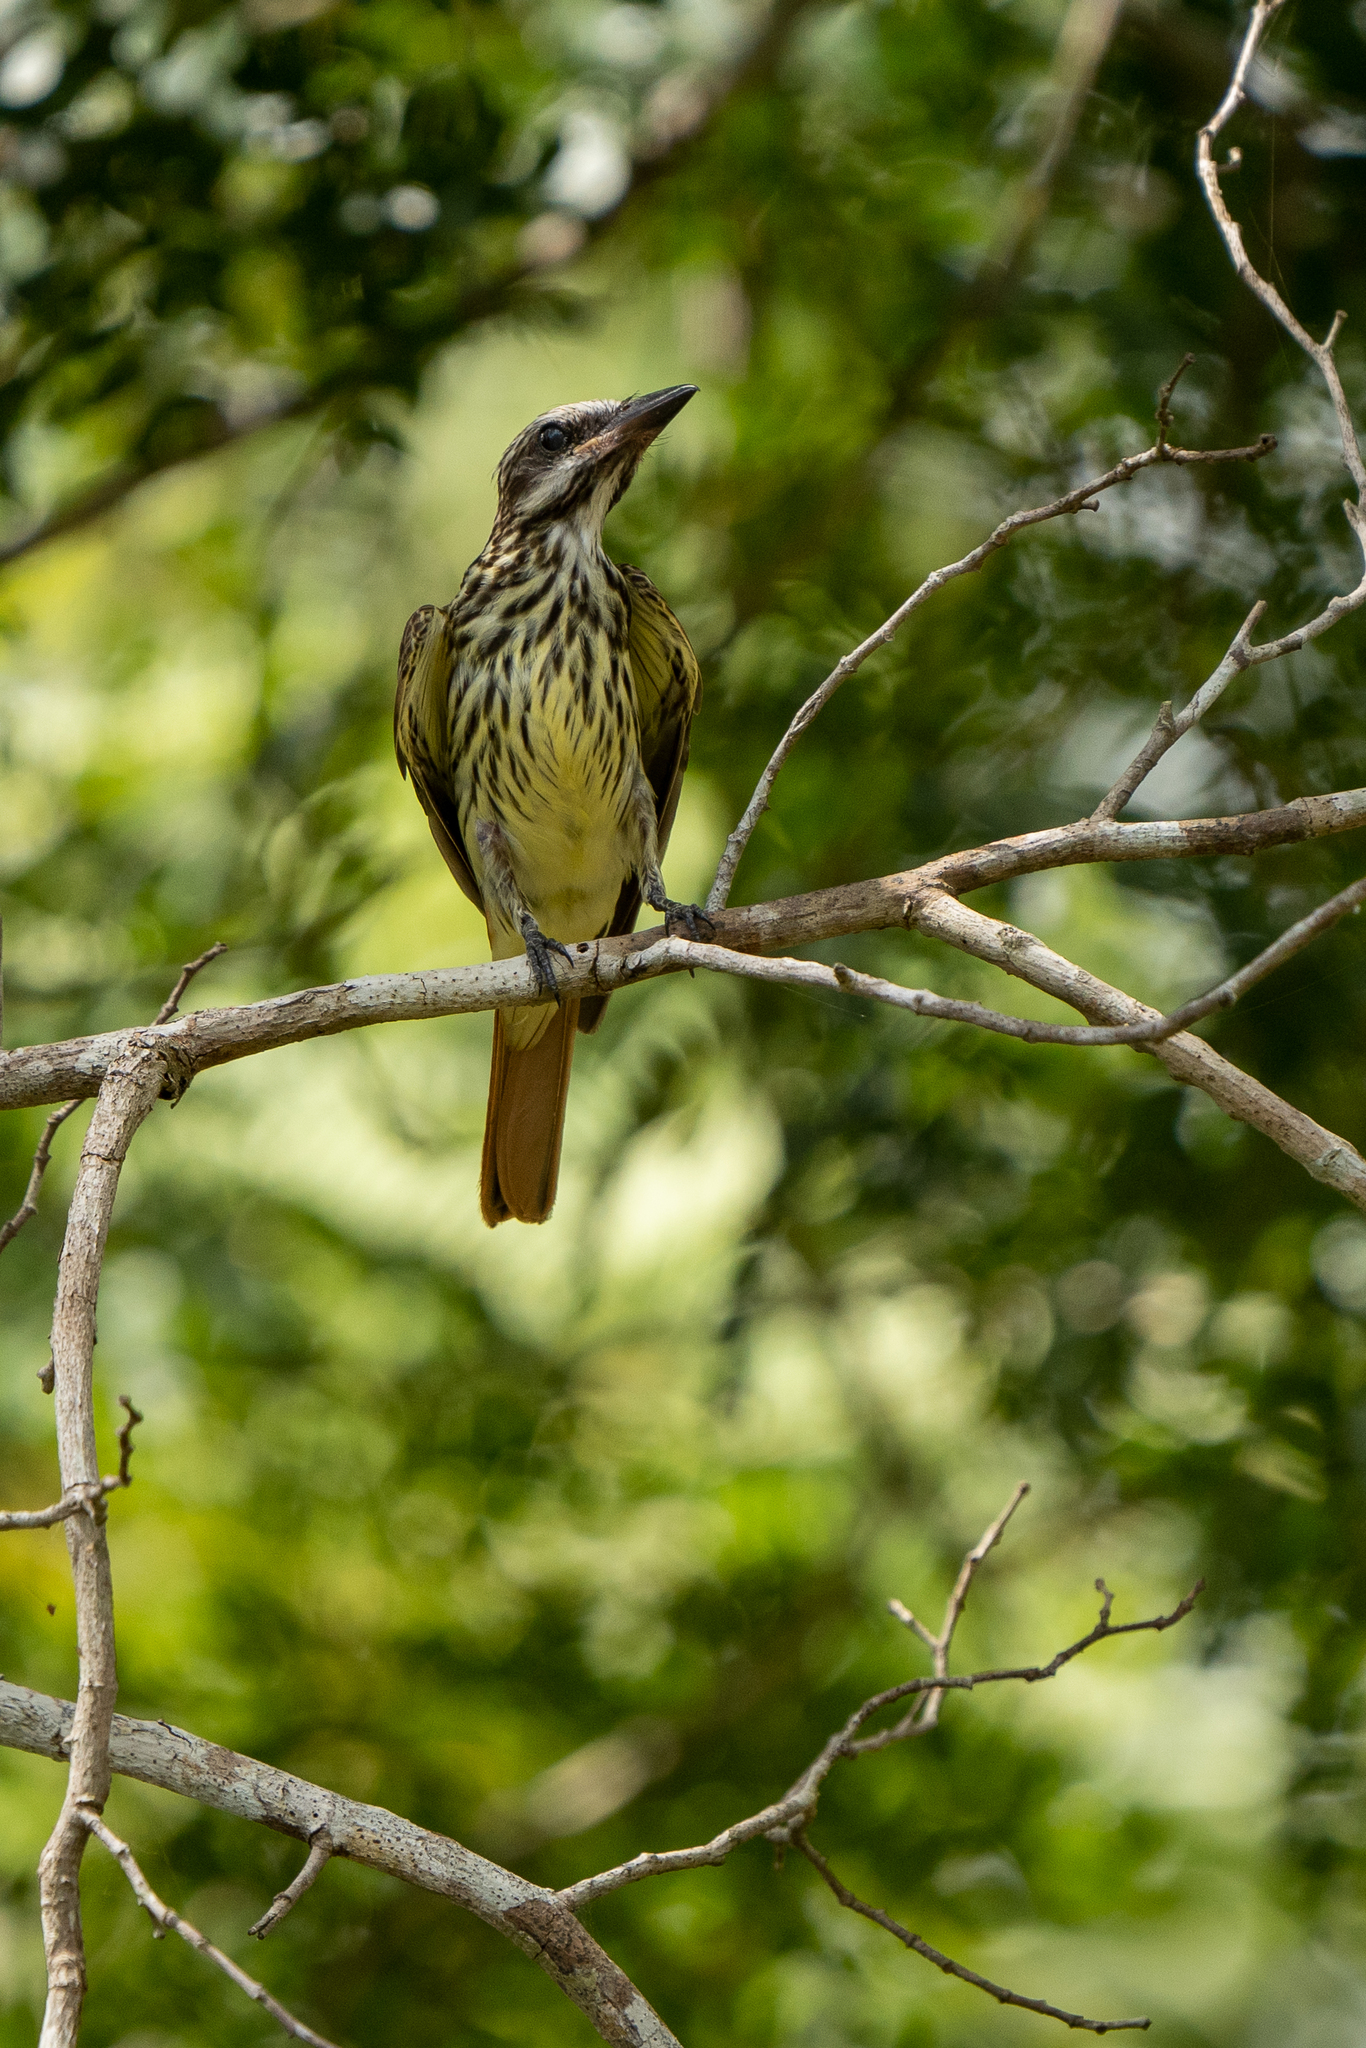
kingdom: Animalia
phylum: Chordata
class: Aves
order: Passeriformes
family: Tyrannidae
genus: Myiodynastes
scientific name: Myiodynastes luteiventris
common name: Sulphur-bellied flycatcher
